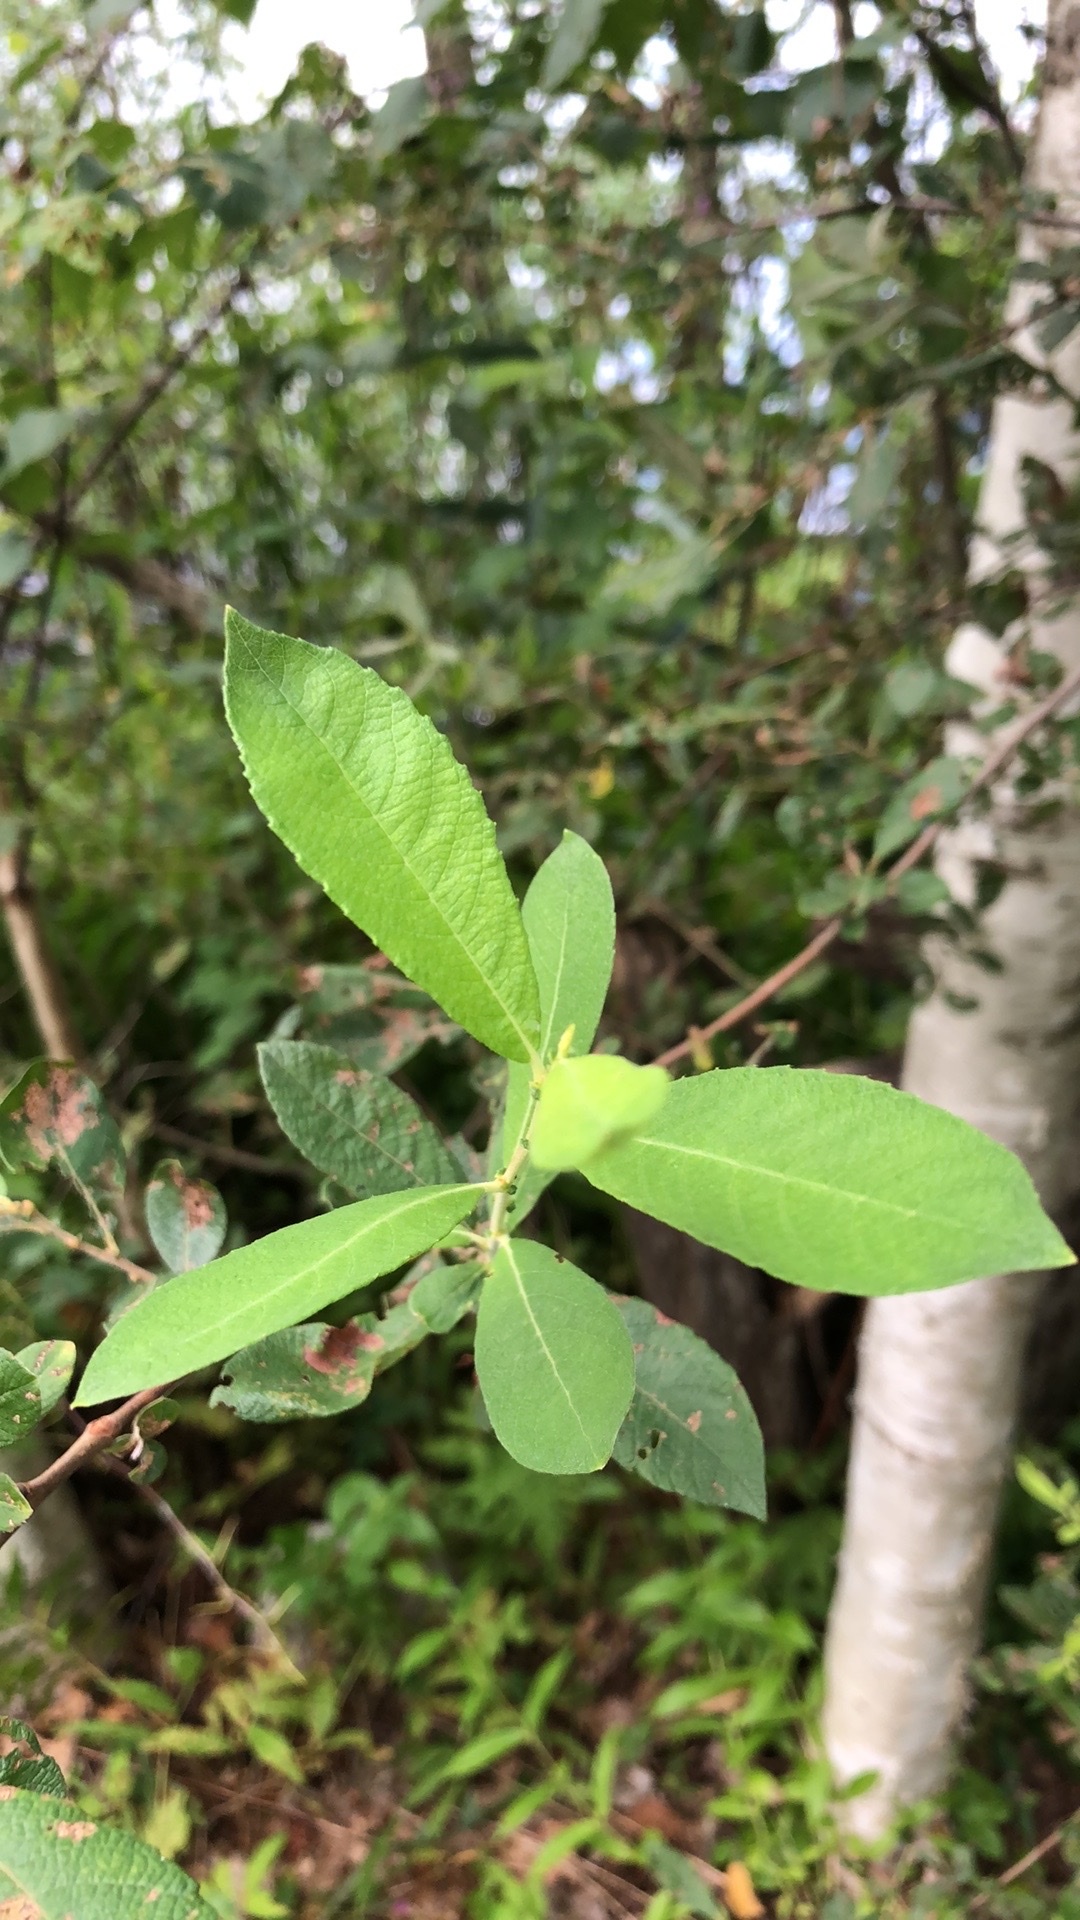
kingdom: Plantae
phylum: Tracheophyta
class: Magnoliopsida
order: Malpighiales
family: Salicaceae
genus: Salix
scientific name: Salix atrocinerea
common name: Rusty willow
